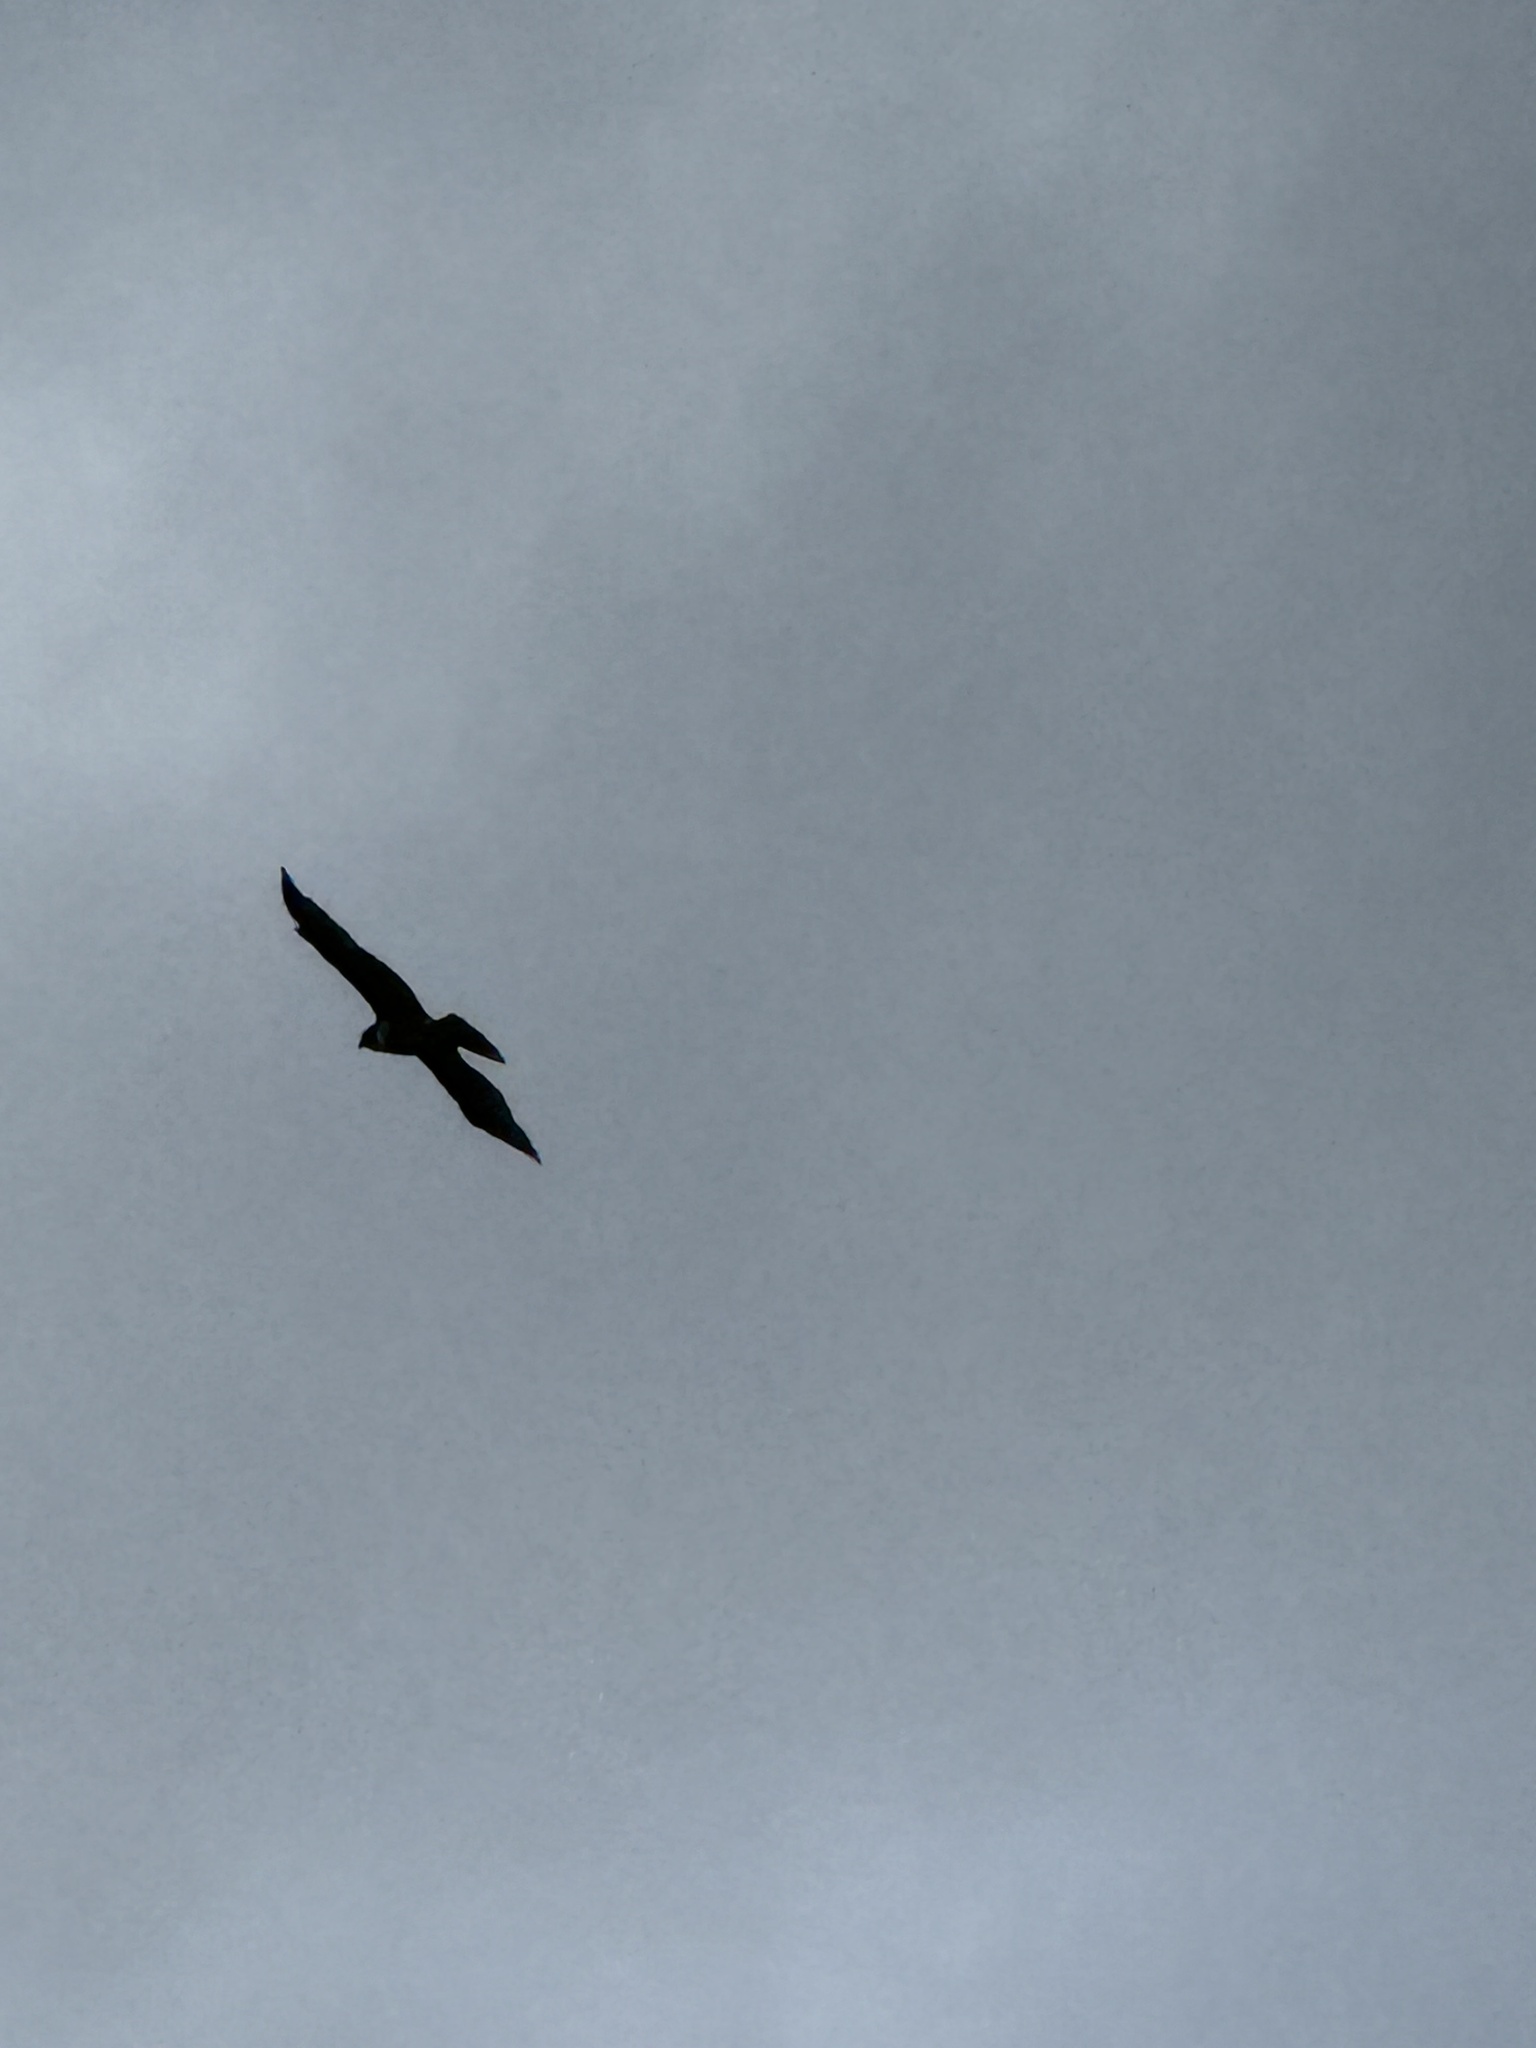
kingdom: Animalia
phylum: Chordata
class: Aves
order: Accipitriformes
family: Accipitridae
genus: Buteo
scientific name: Buteo jamaicensis
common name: Red-tailed hawk
